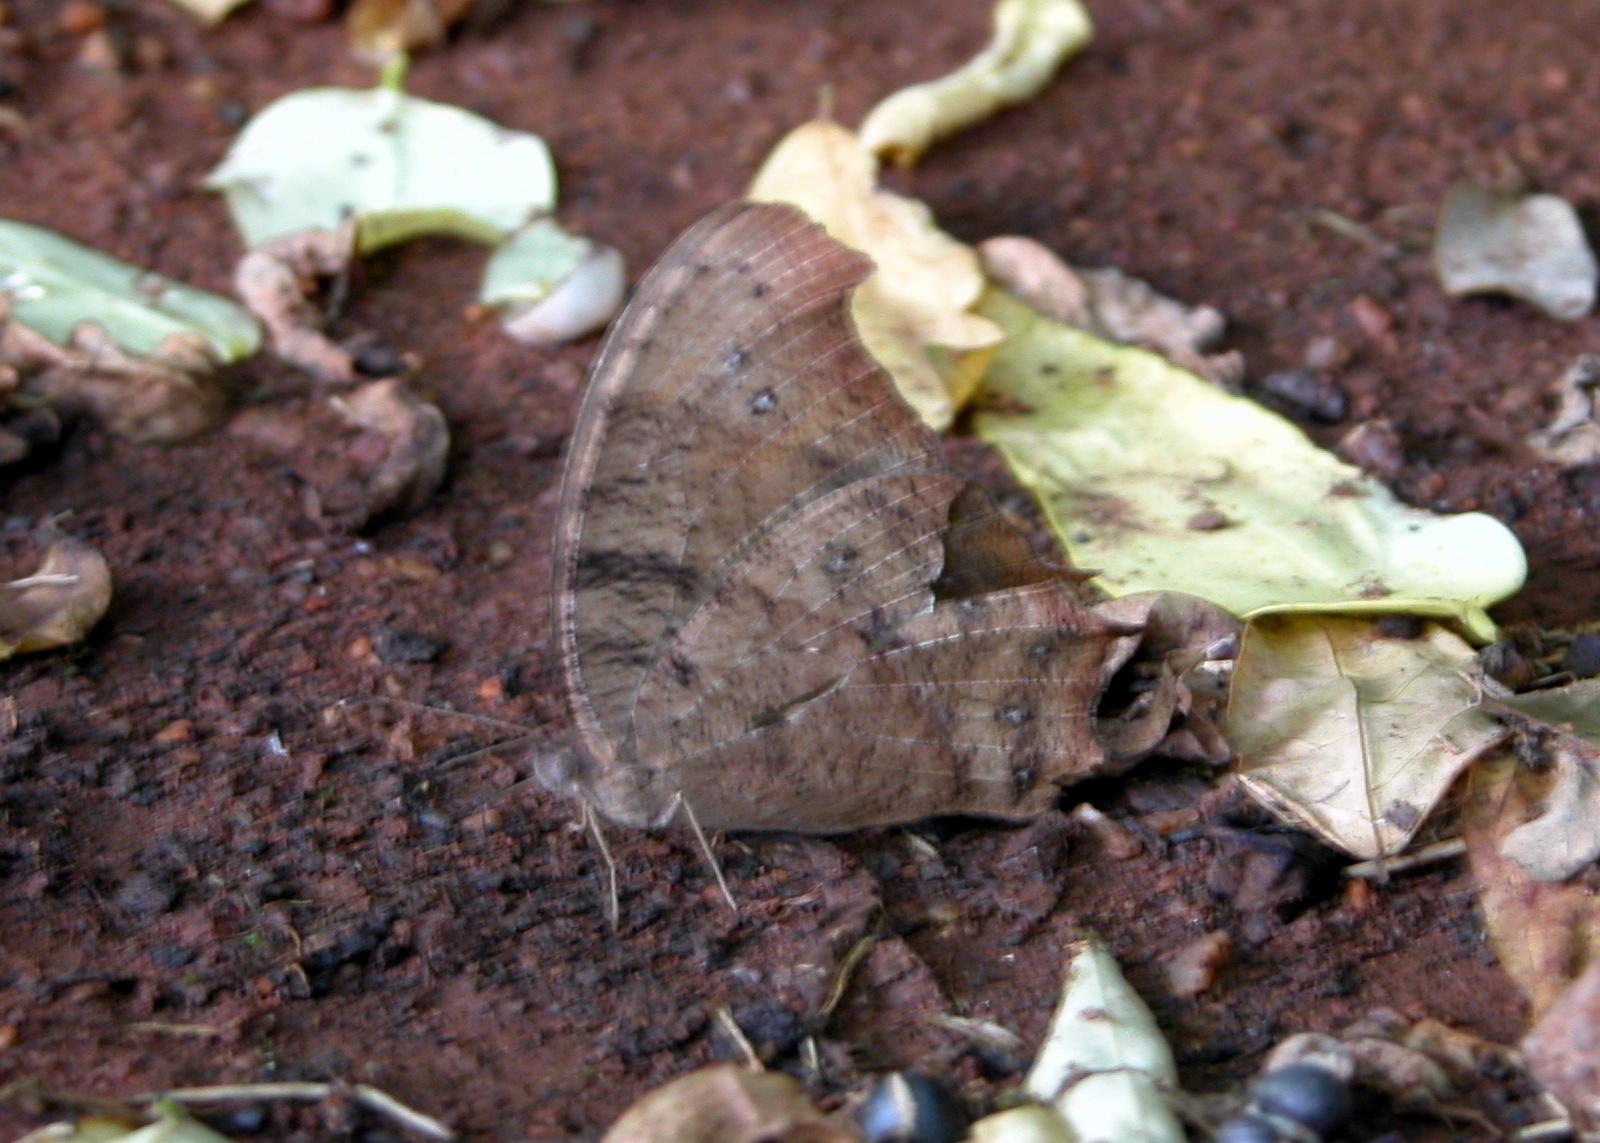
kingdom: Animalia
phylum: Arthropoda
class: Insecta
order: Lepidoptera
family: Nymphalidae
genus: Melanitis
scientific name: Melanitis leda
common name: Twilight brown
